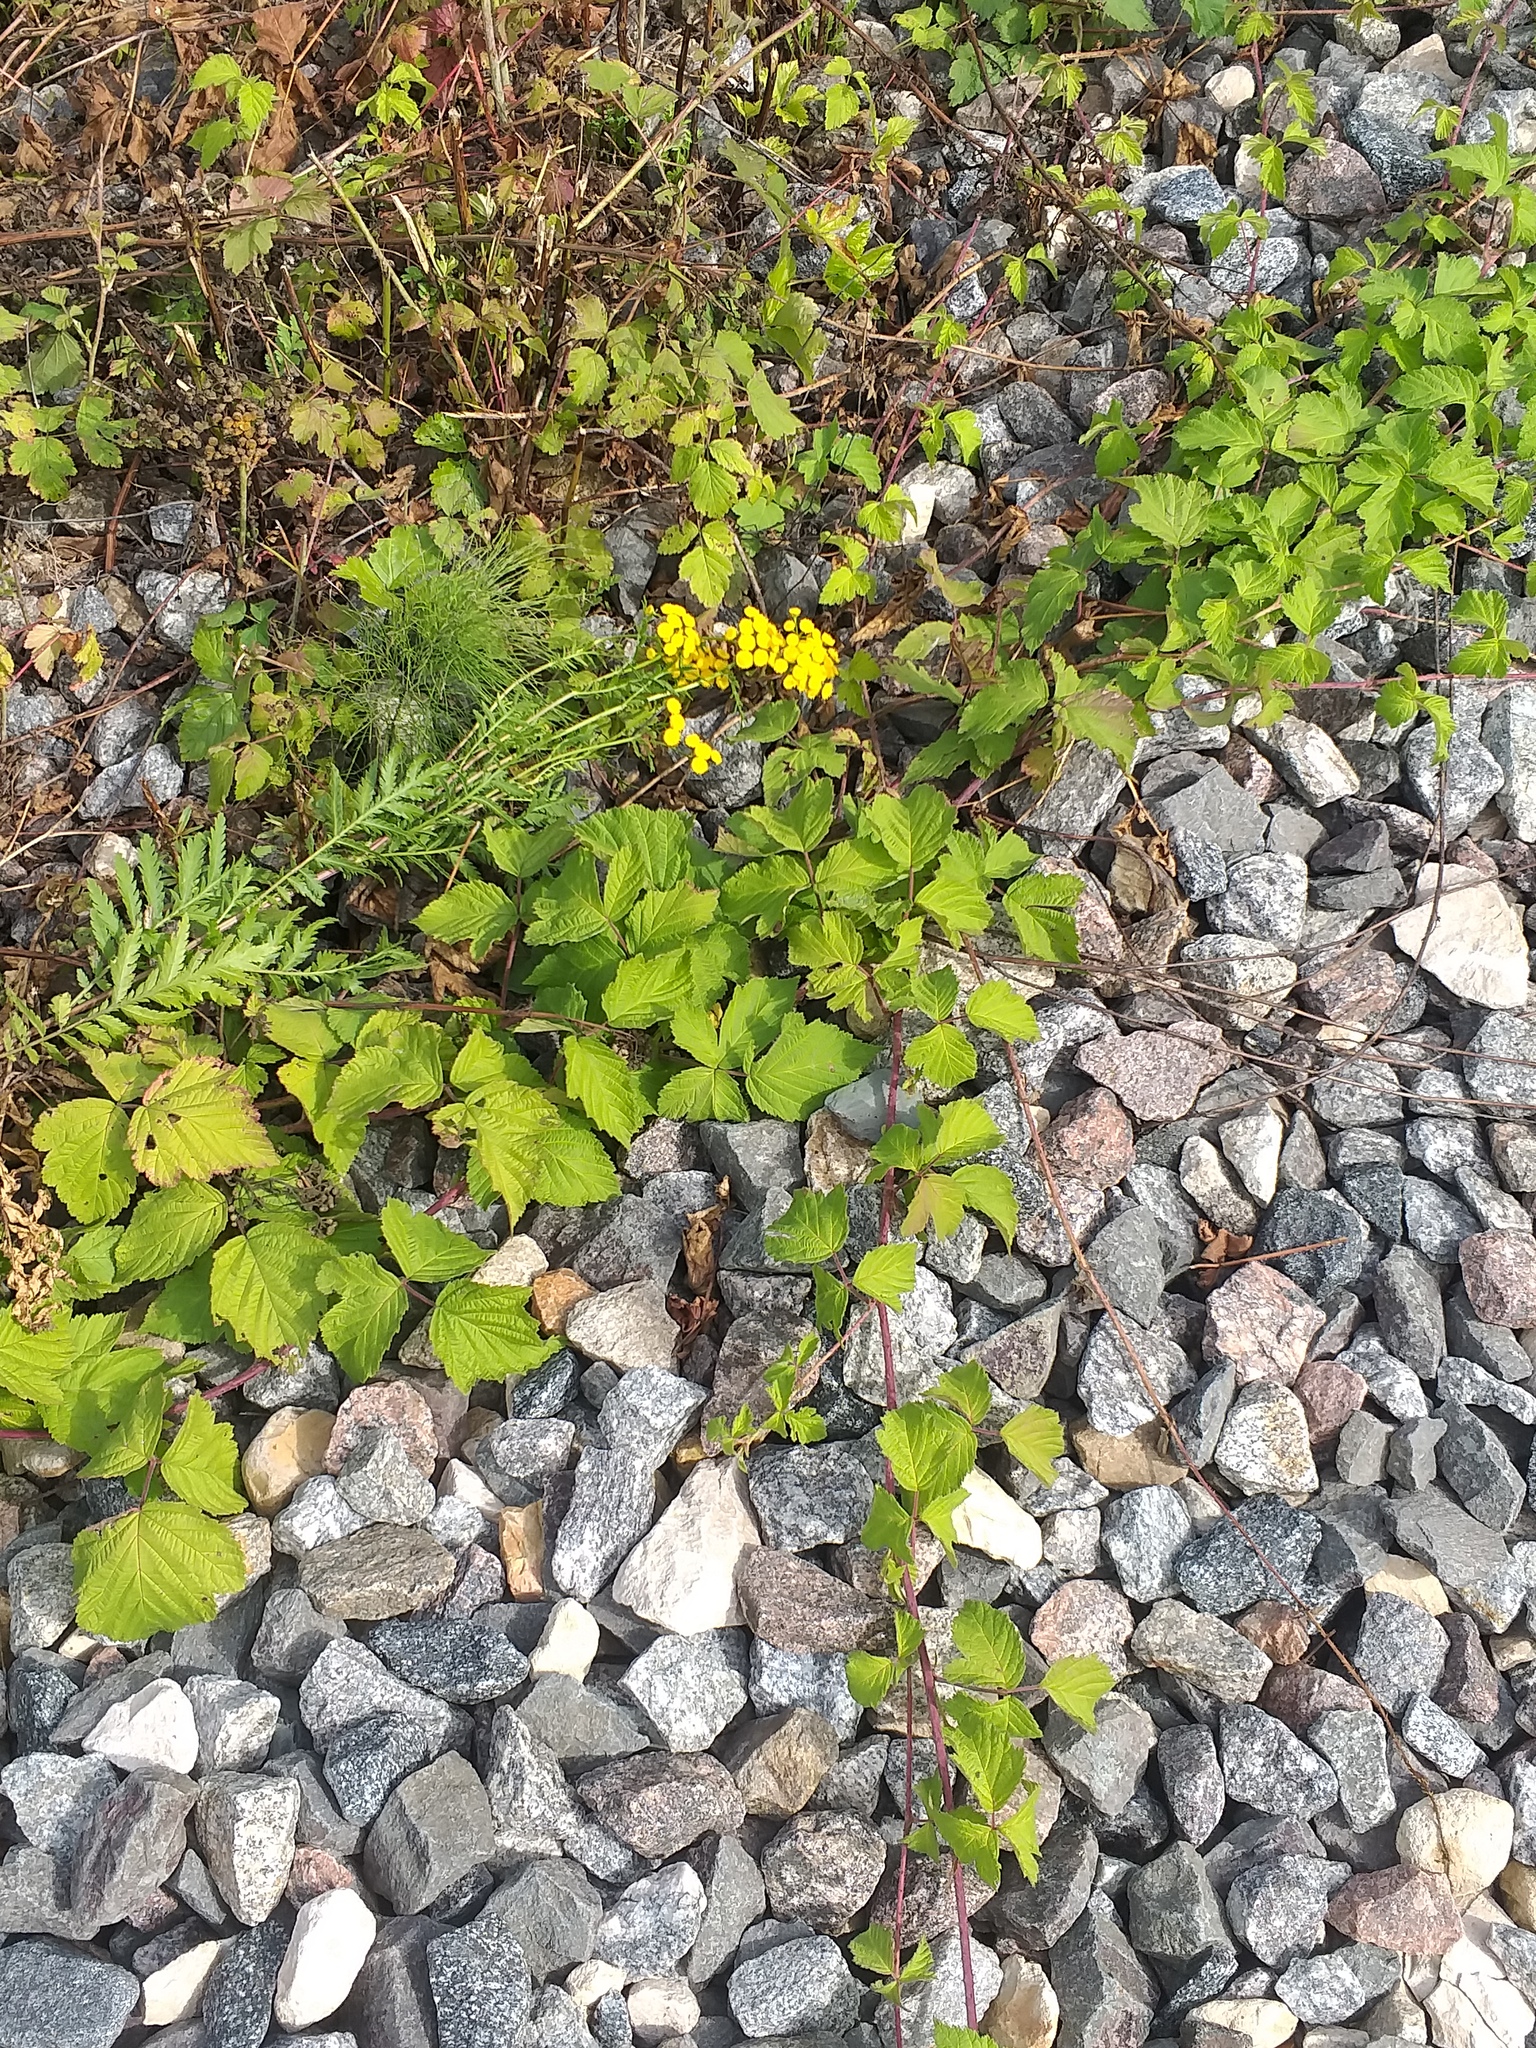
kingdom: Plantae
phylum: Tracheophyta
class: Magnoliopsida
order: Rosales
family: Rosaceae
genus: Rubus
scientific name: Rubus caesius
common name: Dewberry
